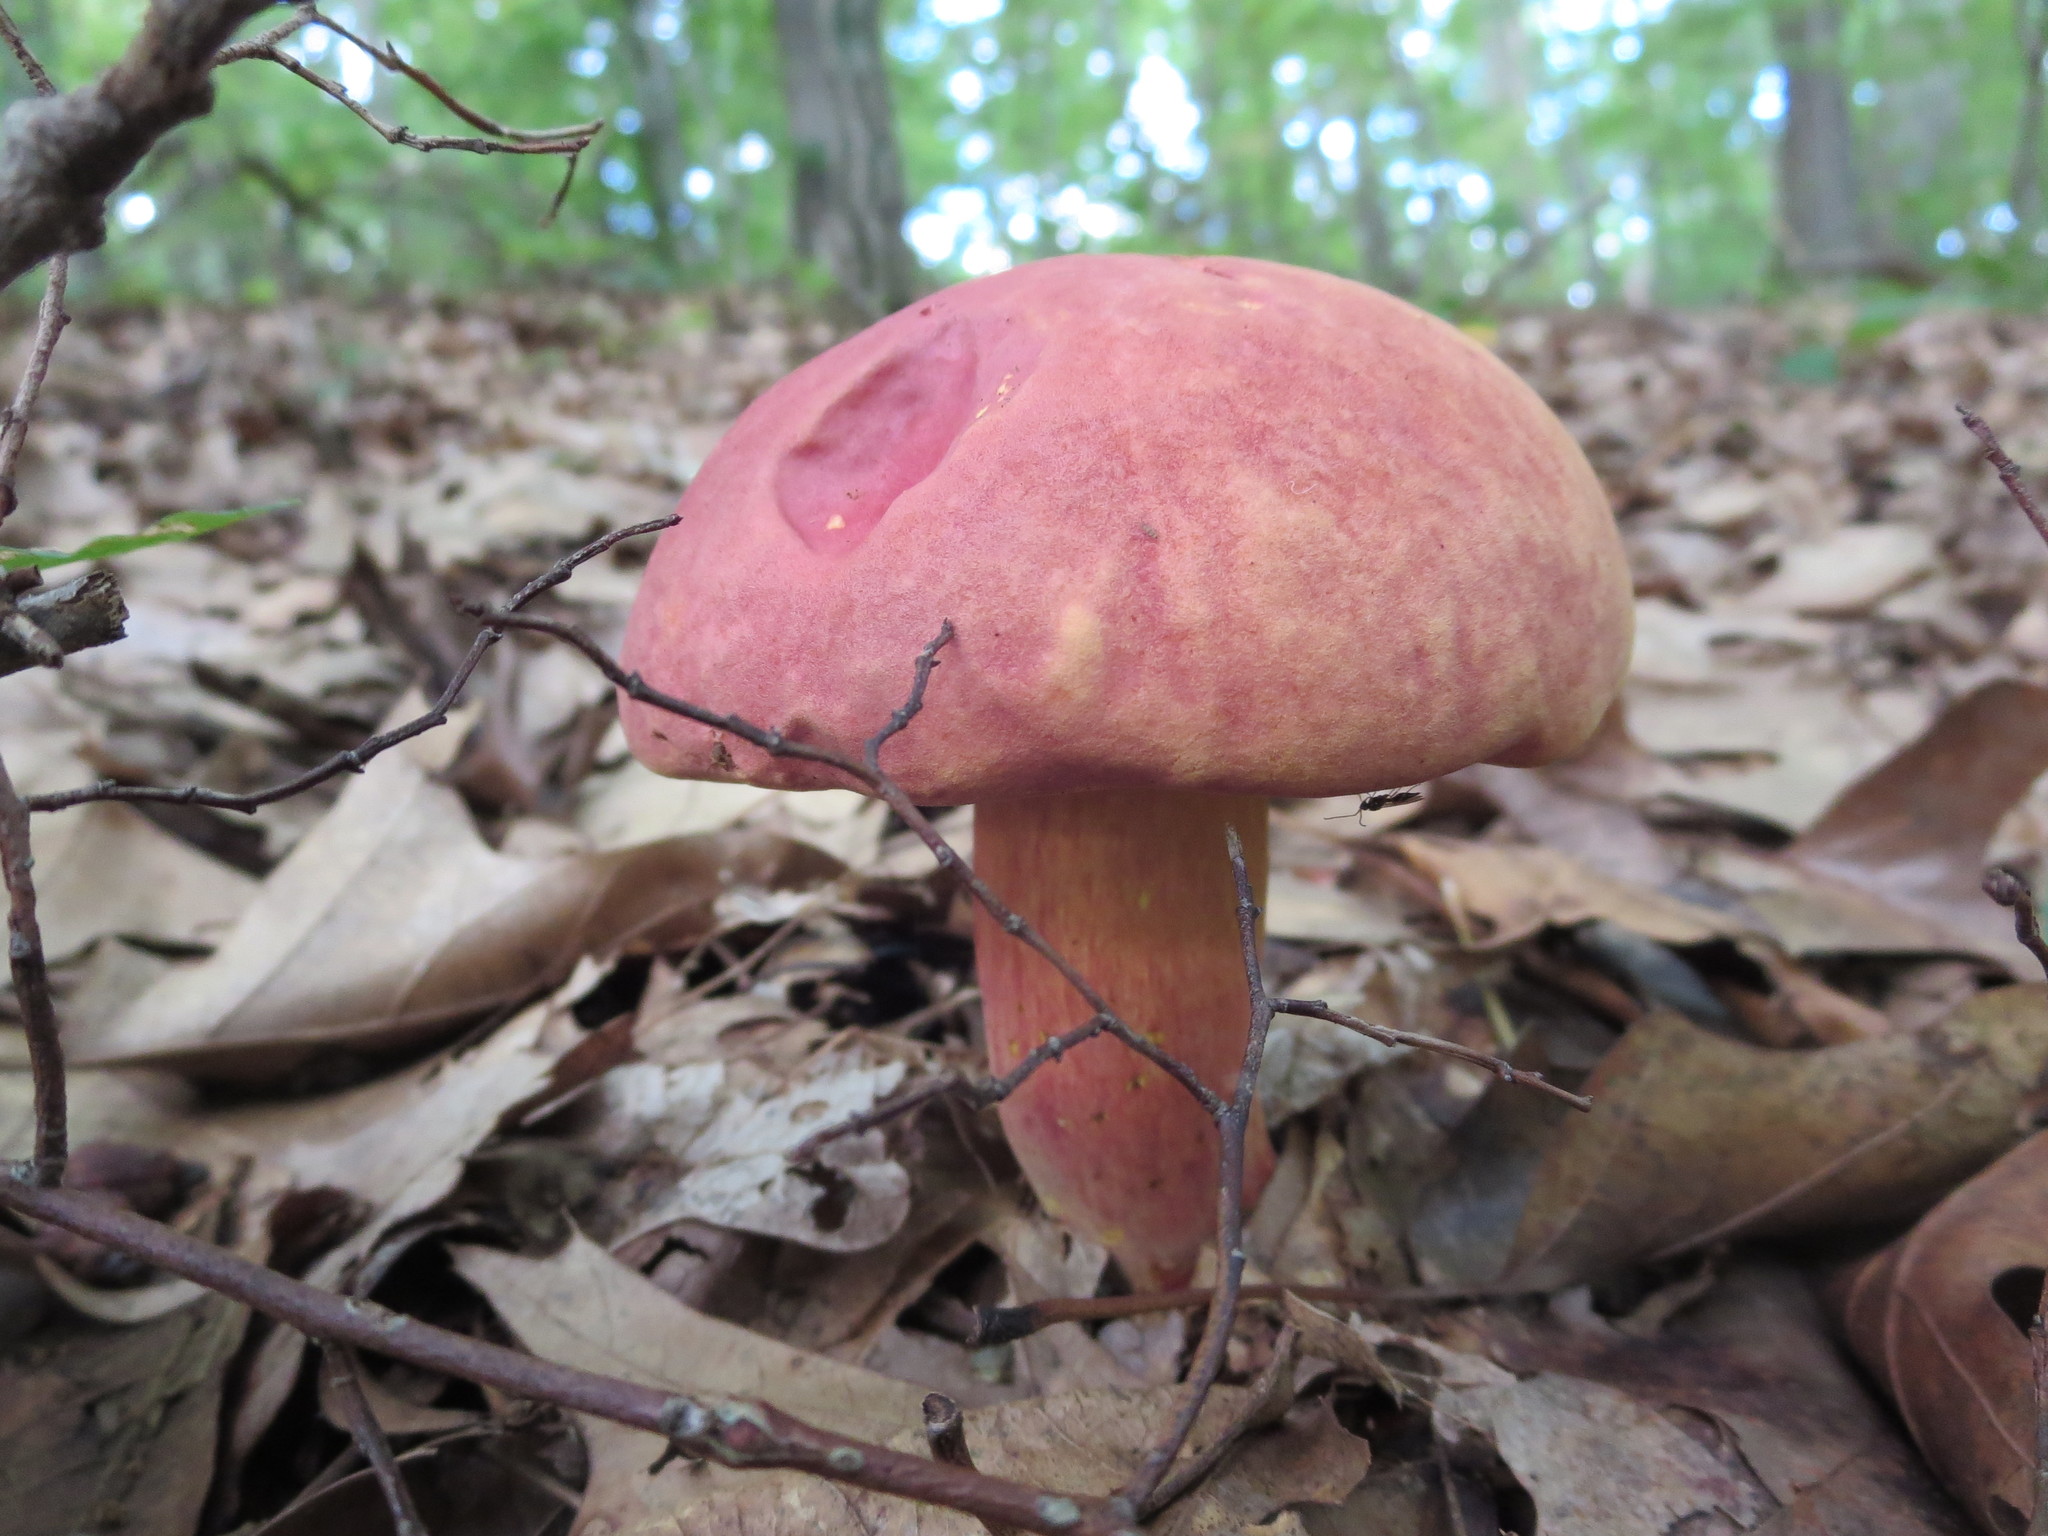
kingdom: Fungi
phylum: Basidiomycota
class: Agaricomycetes
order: Boletales
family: Boletaceae
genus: Lanmaoa
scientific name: Lanmaoa pallidorosea
